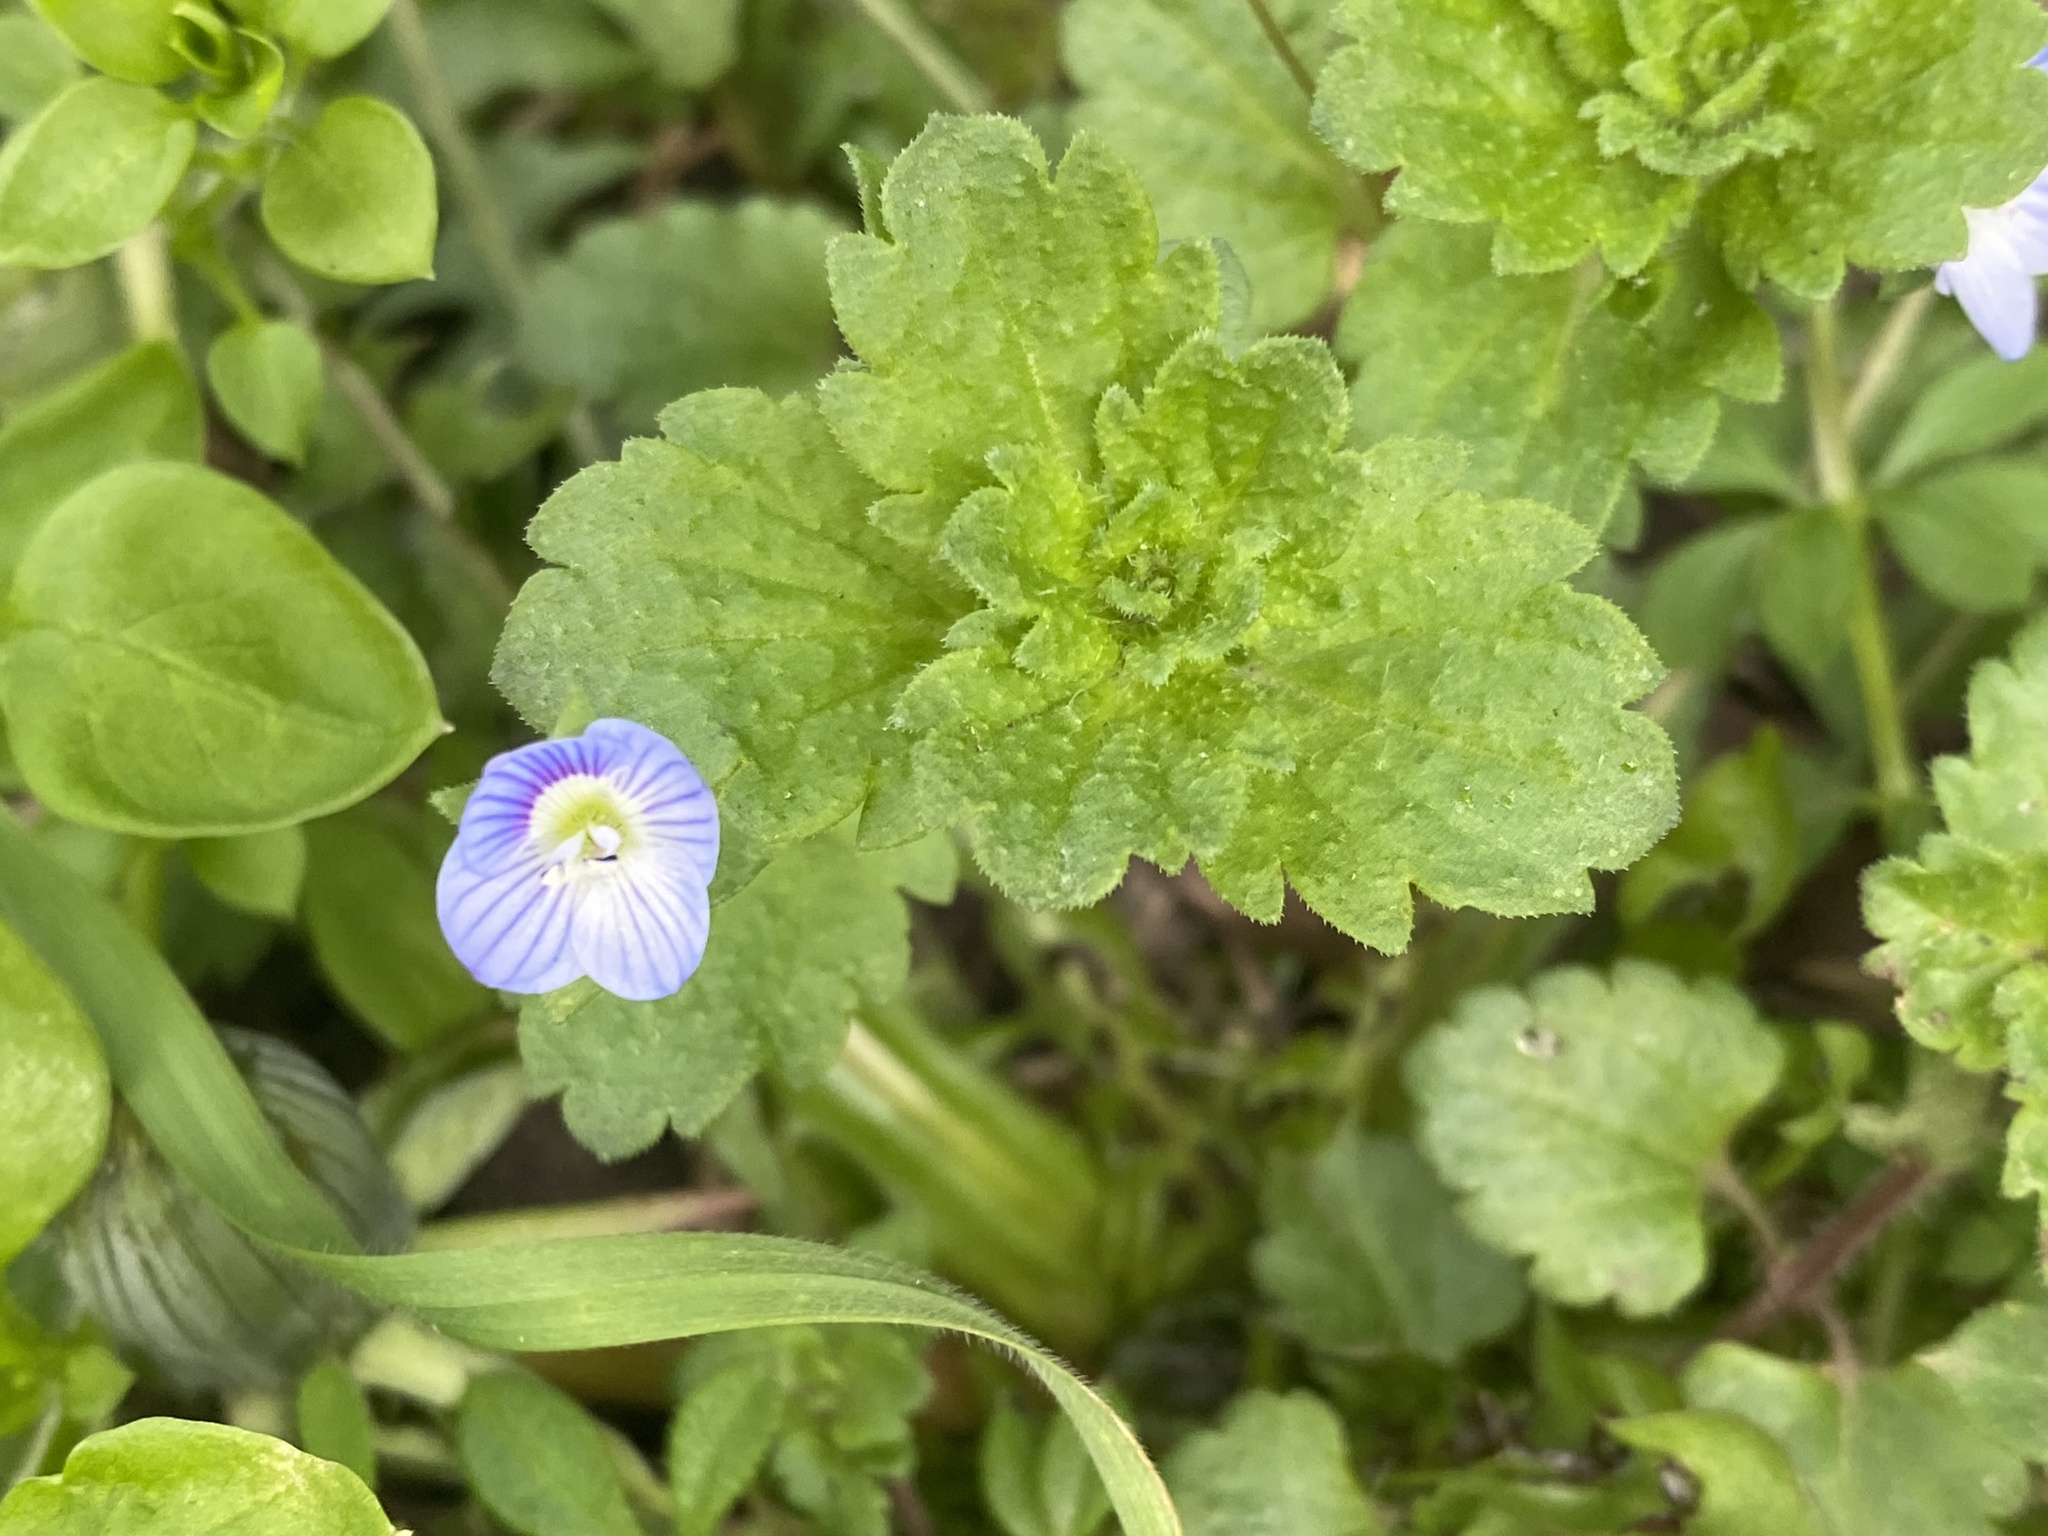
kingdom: Plantae
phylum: Tracheophyta
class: Magnoliopsida
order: Lamiales
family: Plantaginaceae
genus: Veronica
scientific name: Veronica persica
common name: Common field-speedwell
